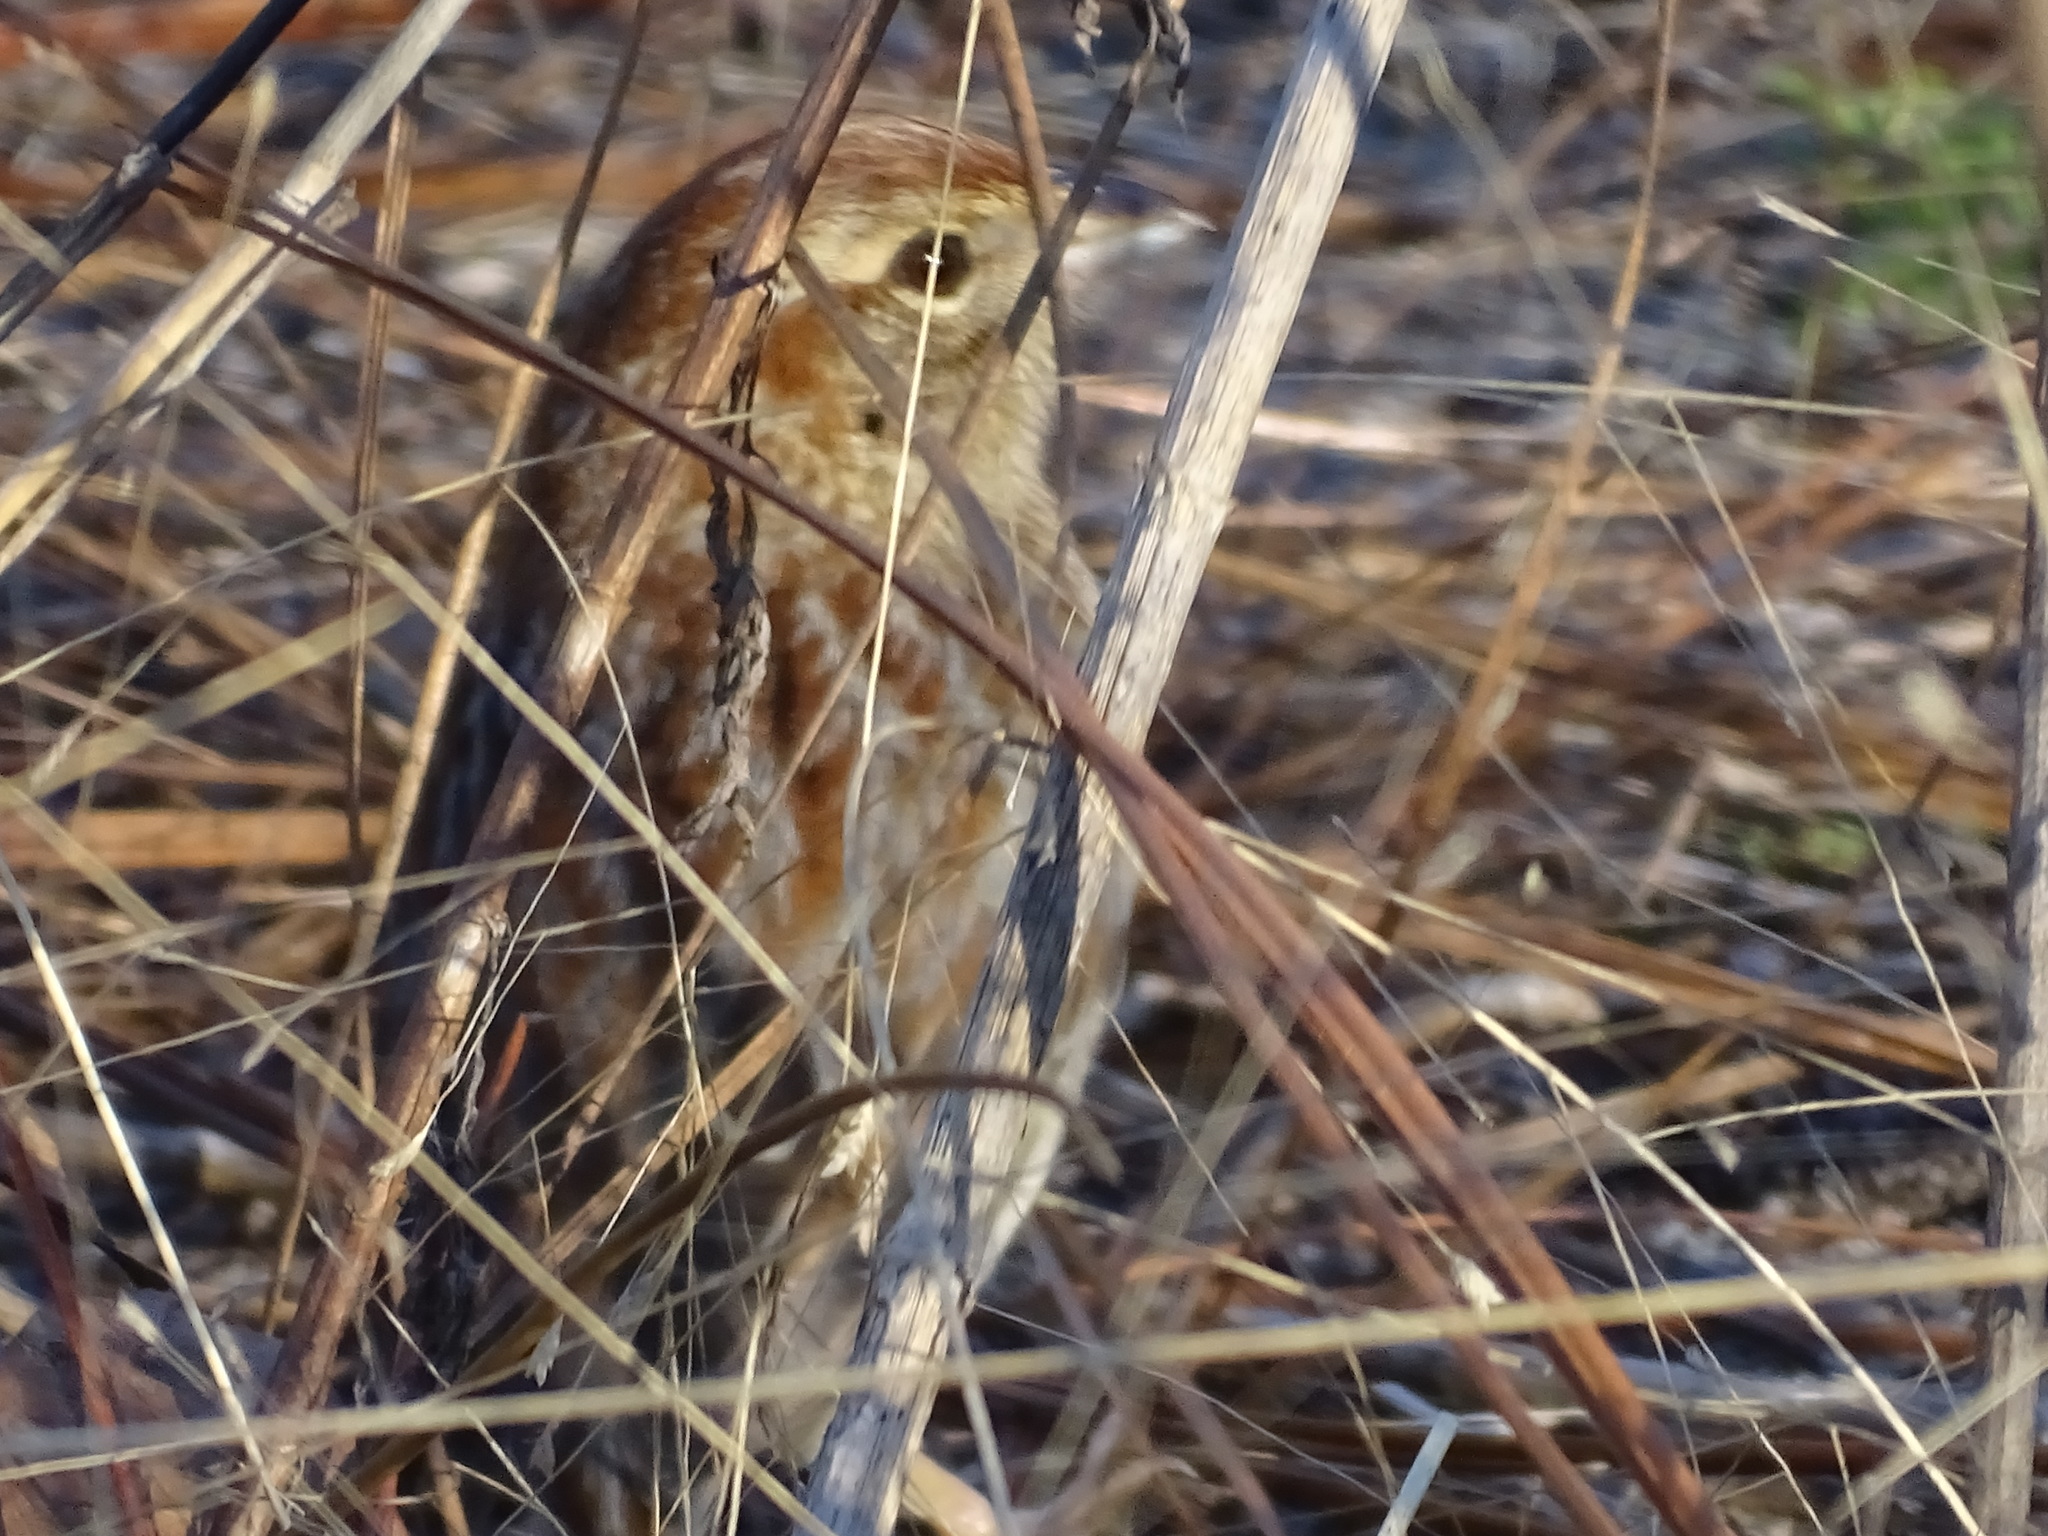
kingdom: Animalia
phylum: Chordata
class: Aves
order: Passeriformes
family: Passerellidae
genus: Peucaea
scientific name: Peucaea aestivalis
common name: Bachman's sparrow
